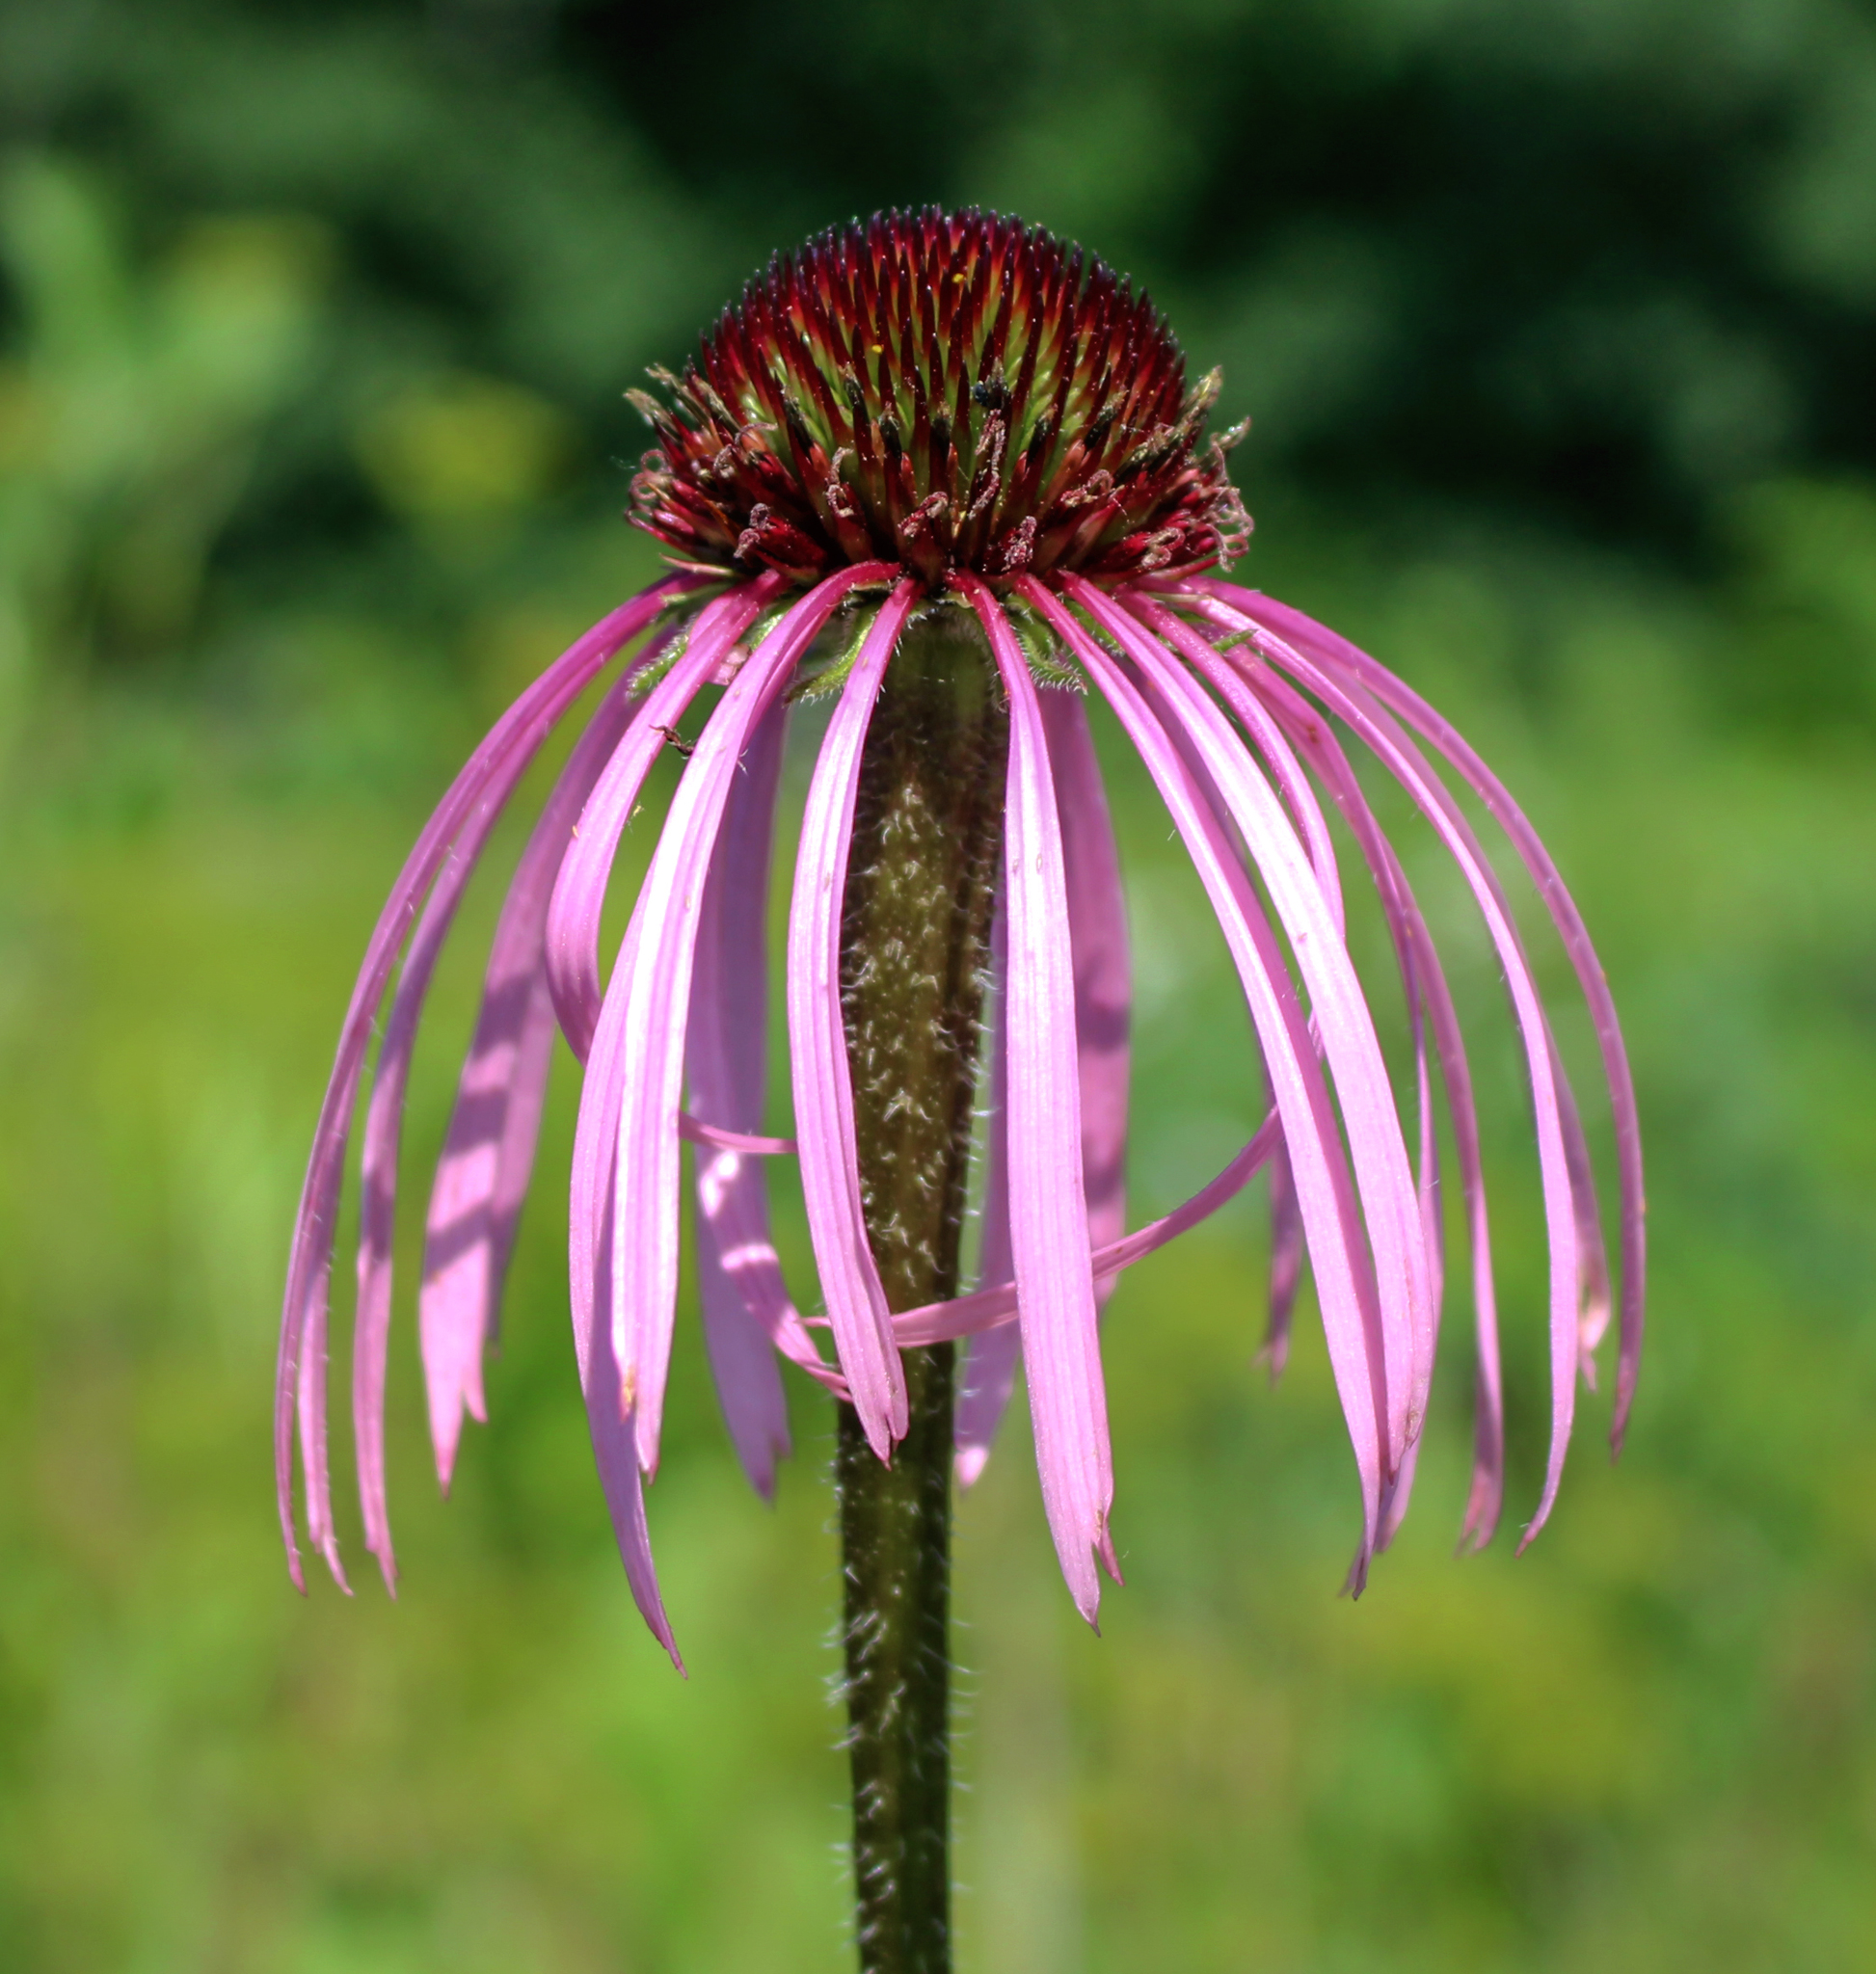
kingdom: Plantae
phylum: Tracheophyta
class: Magnoliopsida
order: Asterales
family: Asteraceae
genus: Echinacea
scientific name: Echinacea pallida
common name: Pale echinacea
